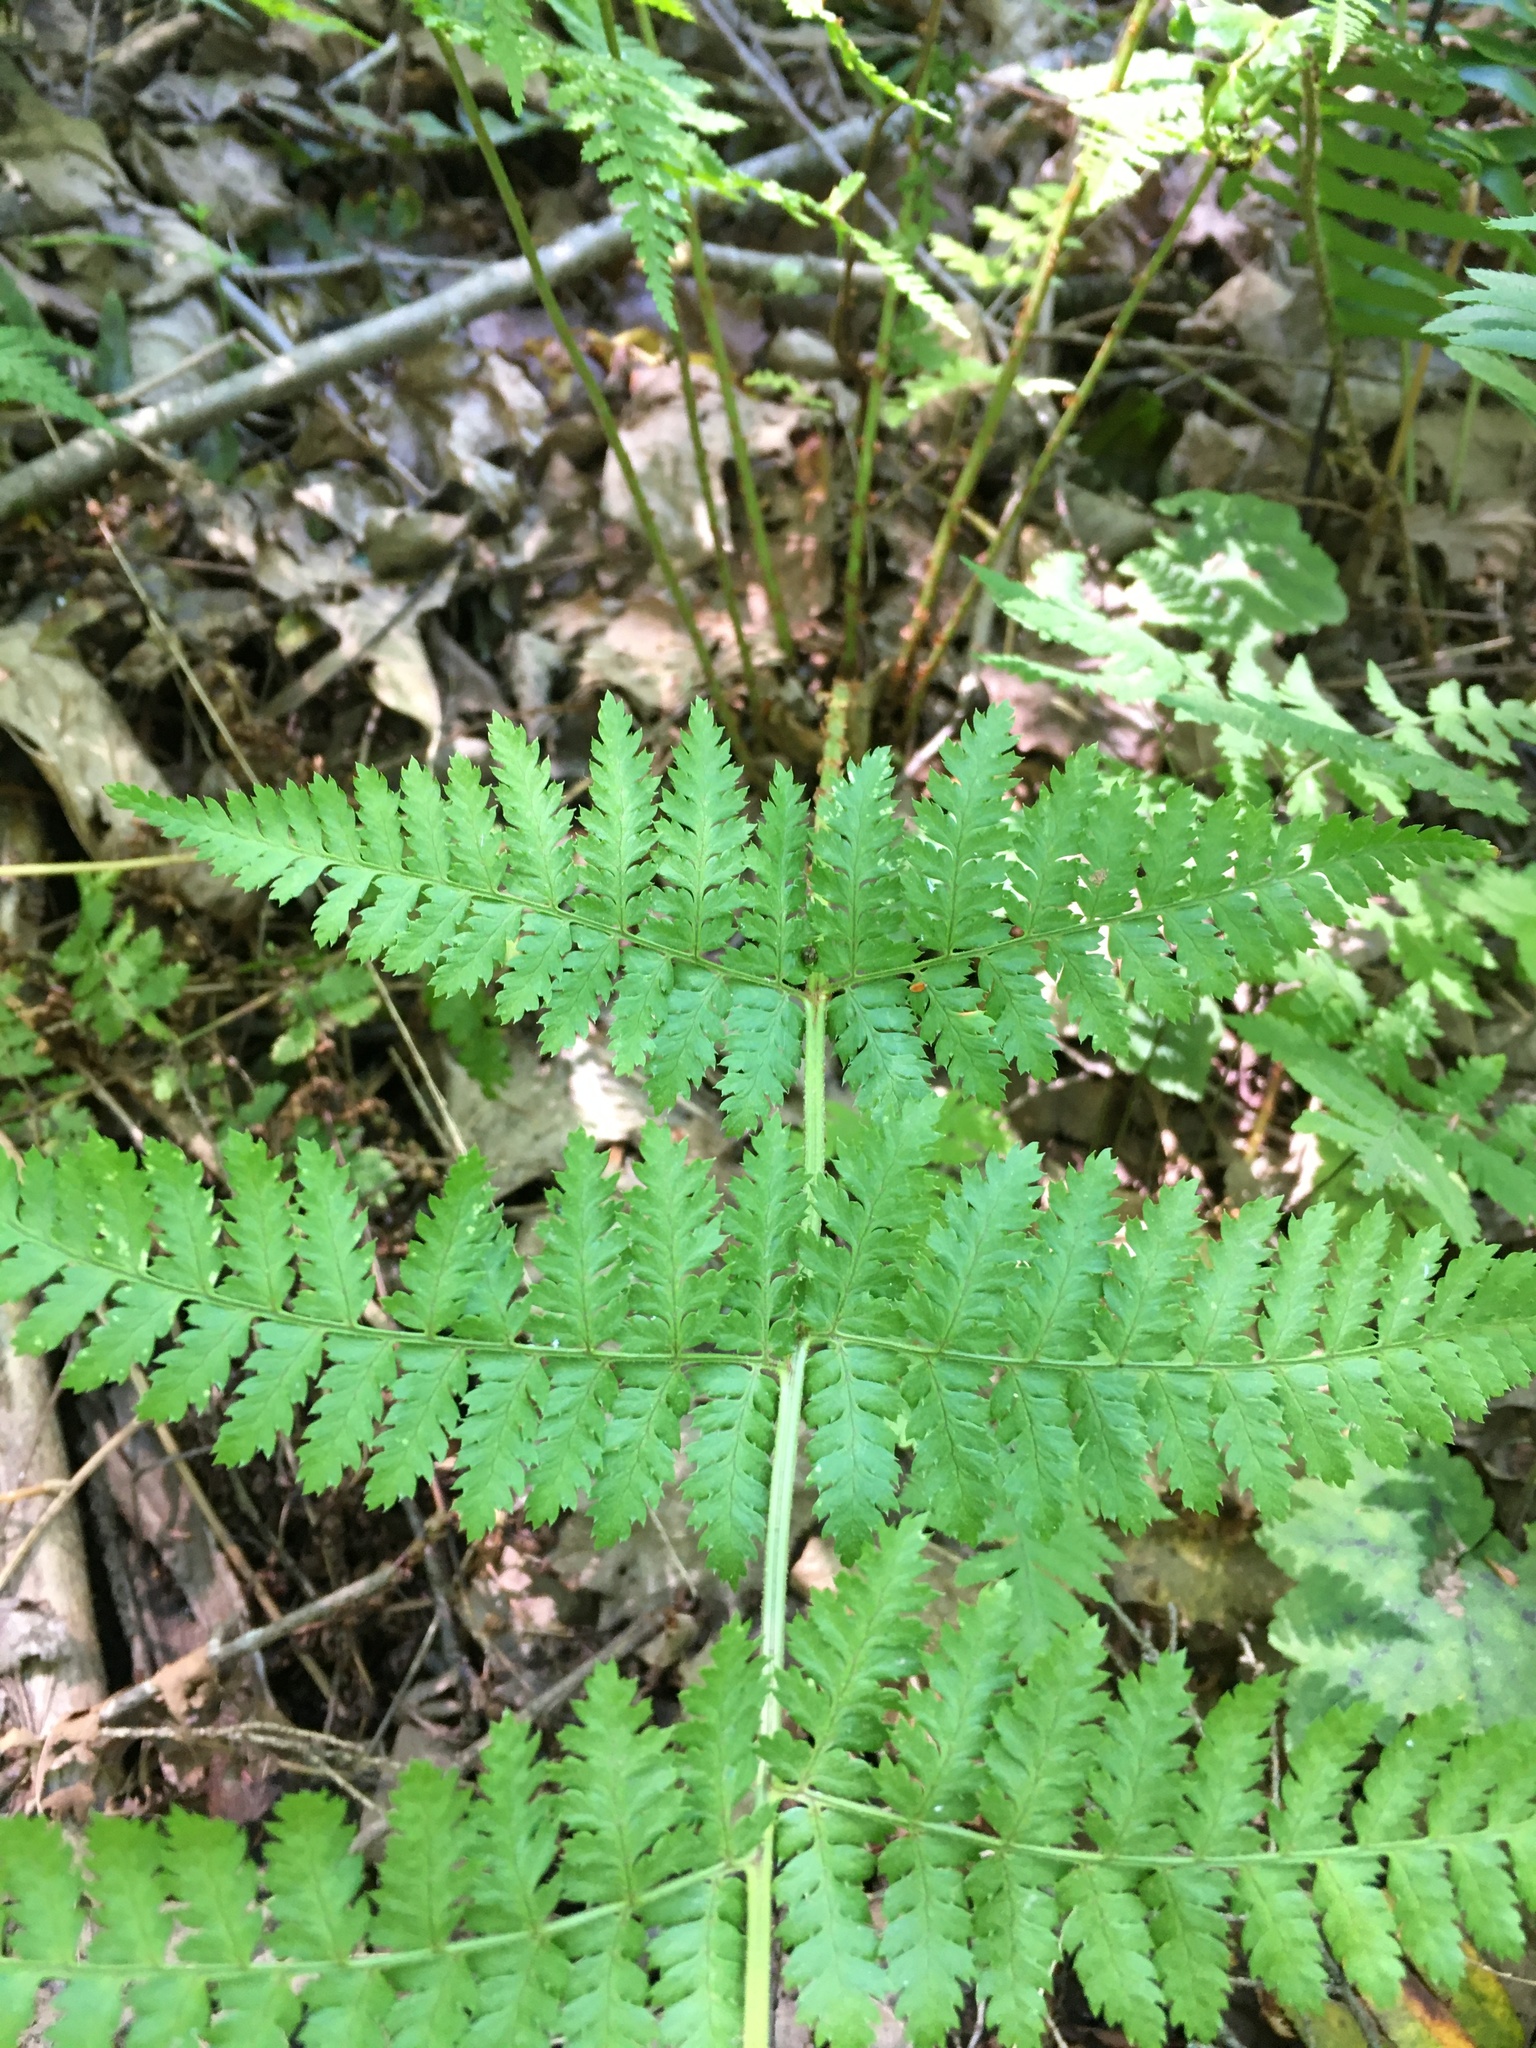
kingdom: Plantae
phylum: Tracheophyta
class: Polypodiopsida
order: Polypodiales
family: Dryopteridaceae
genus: Dryopteris
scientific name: Dryopteris intermedia
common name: Evergreen wood fern
